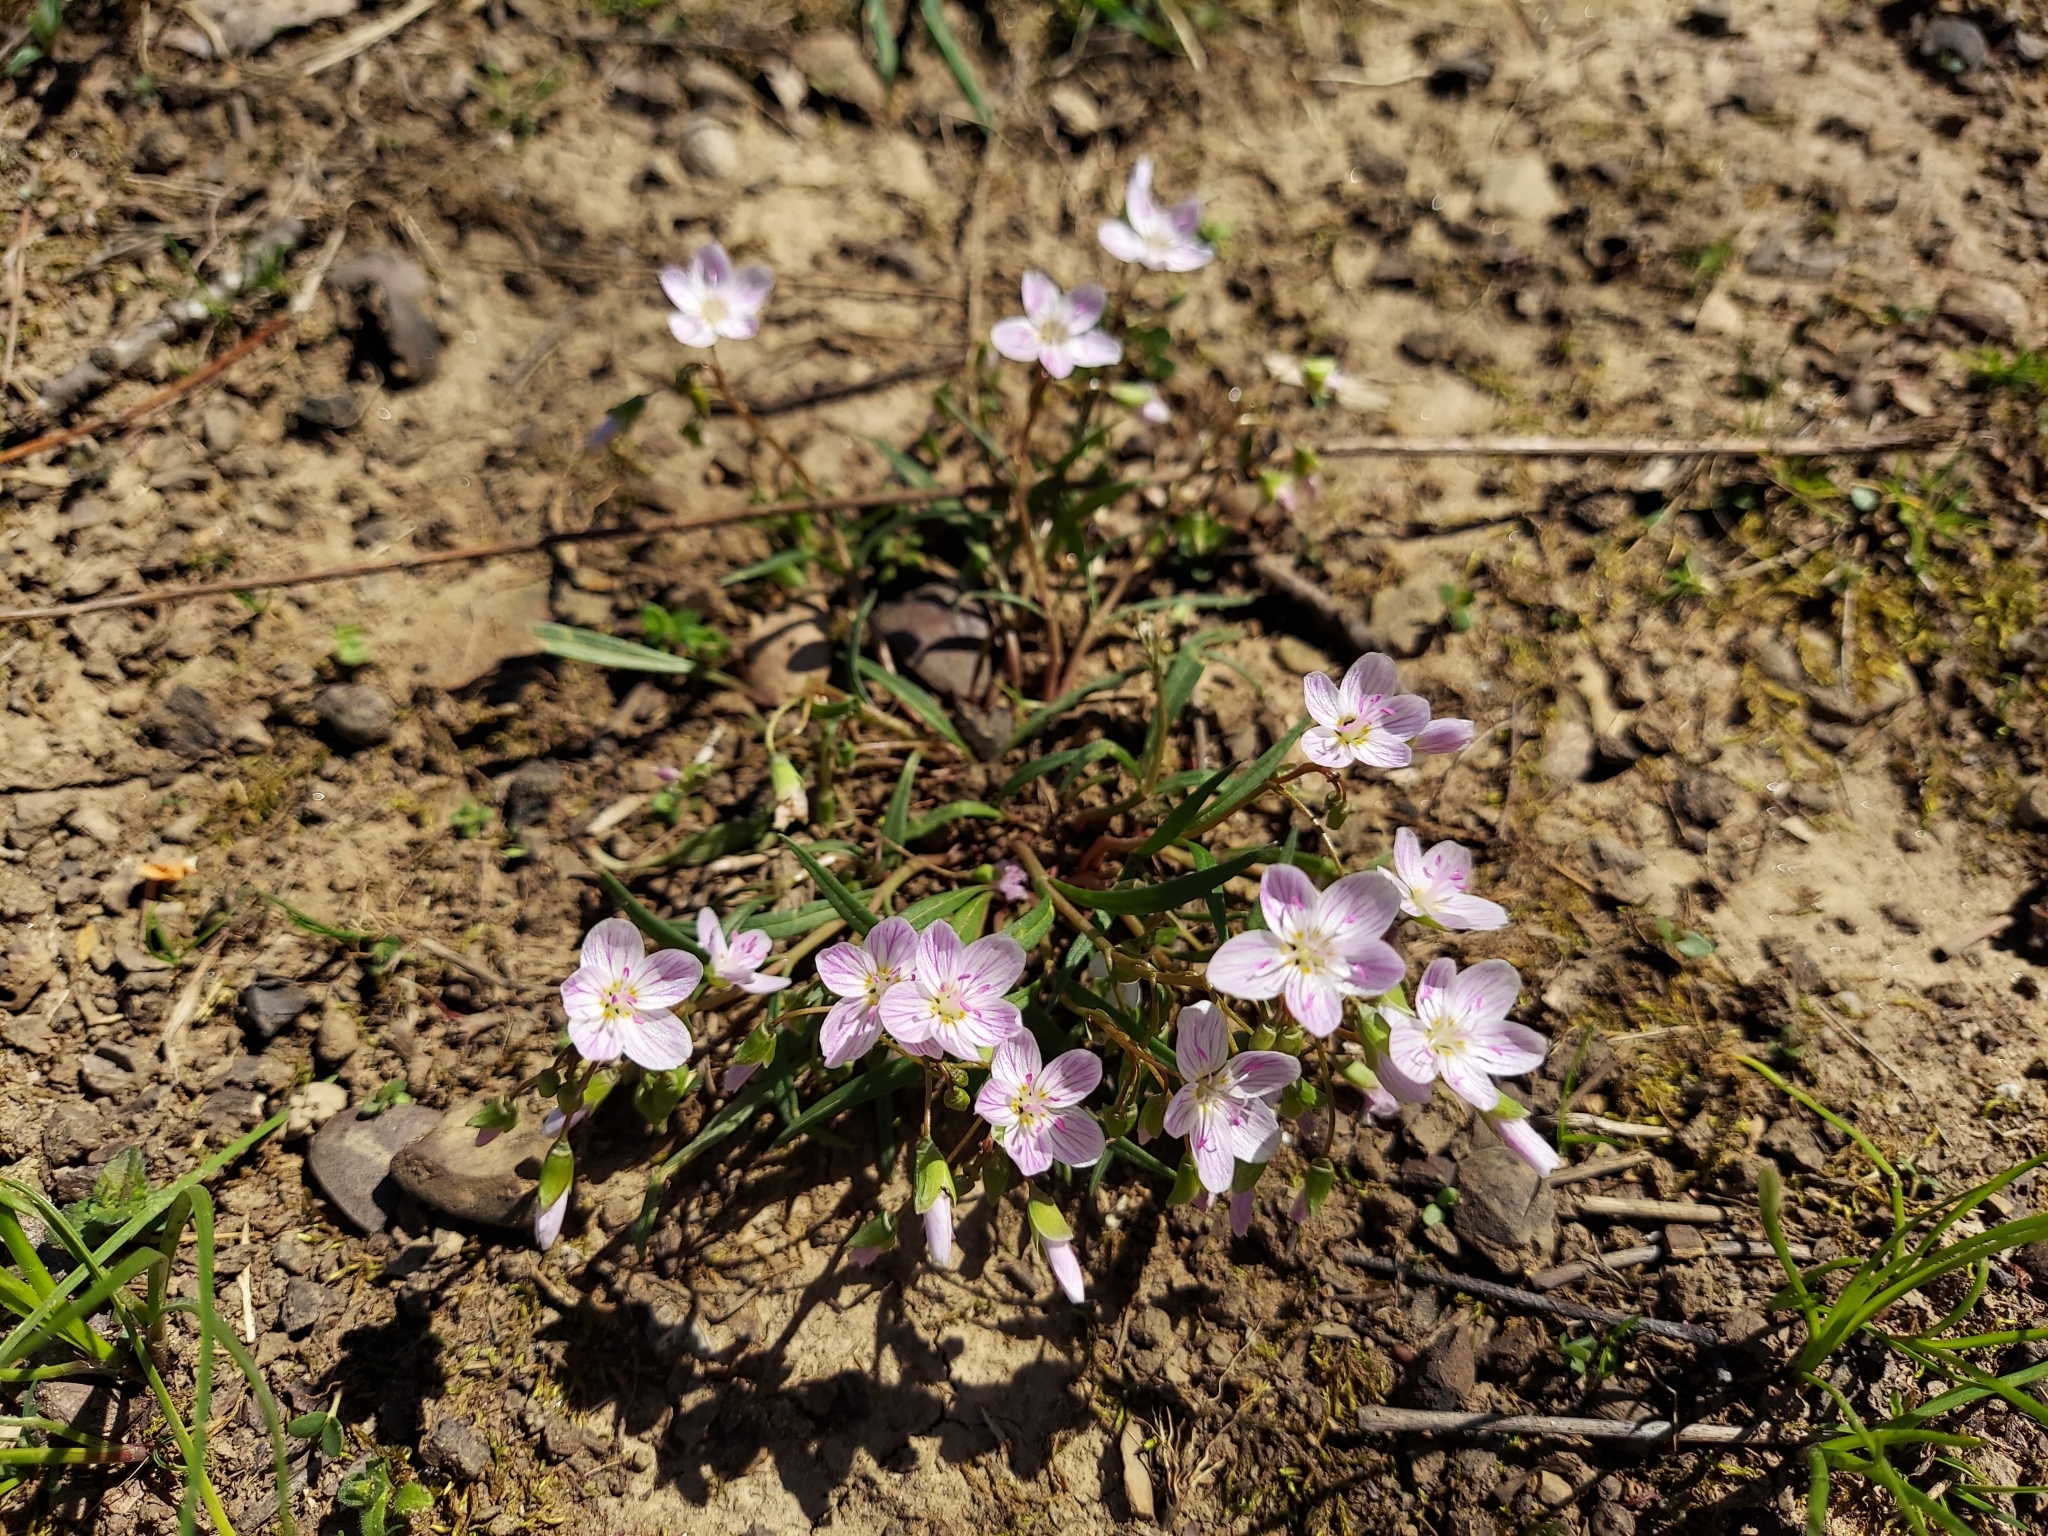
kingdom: Plantae
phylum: Tracheophyta
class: Magnoliopsida
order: Caryophyllales
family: Montiaceae
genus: Claytonia
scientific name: Claytonia virginica
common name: Virginia springbeauty
